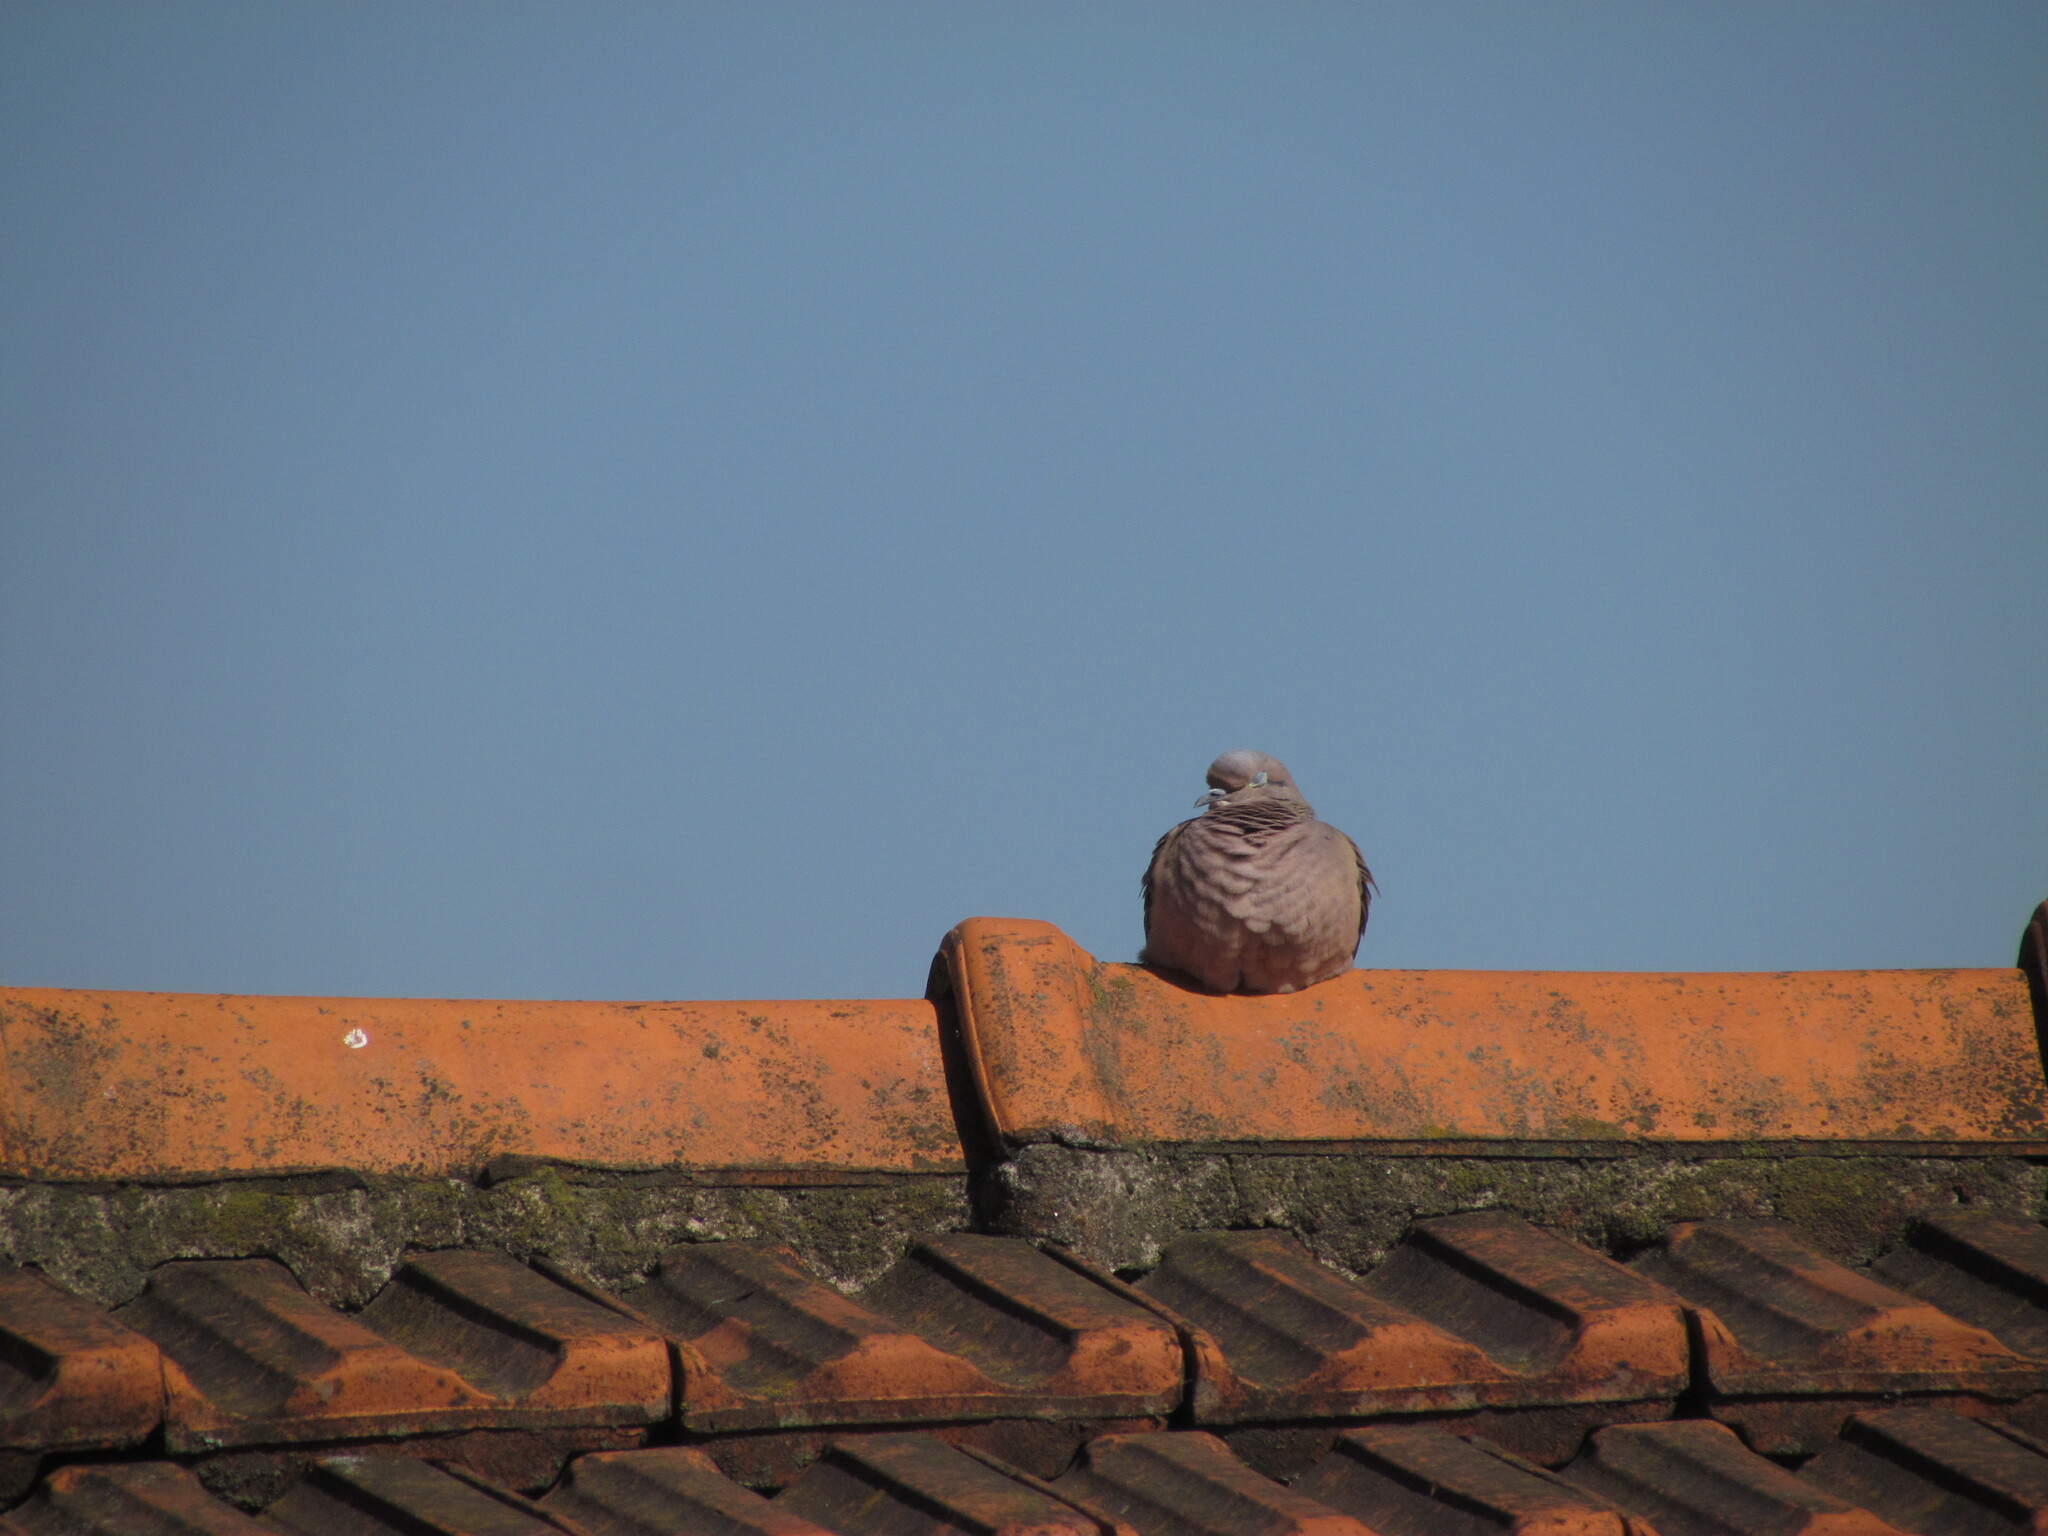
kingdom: Animalia
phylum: Chordata
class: Aves
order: Columbiformes
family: Columbidae
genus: Zenaida
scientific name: Zenaida auriculata
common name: Eared dove
